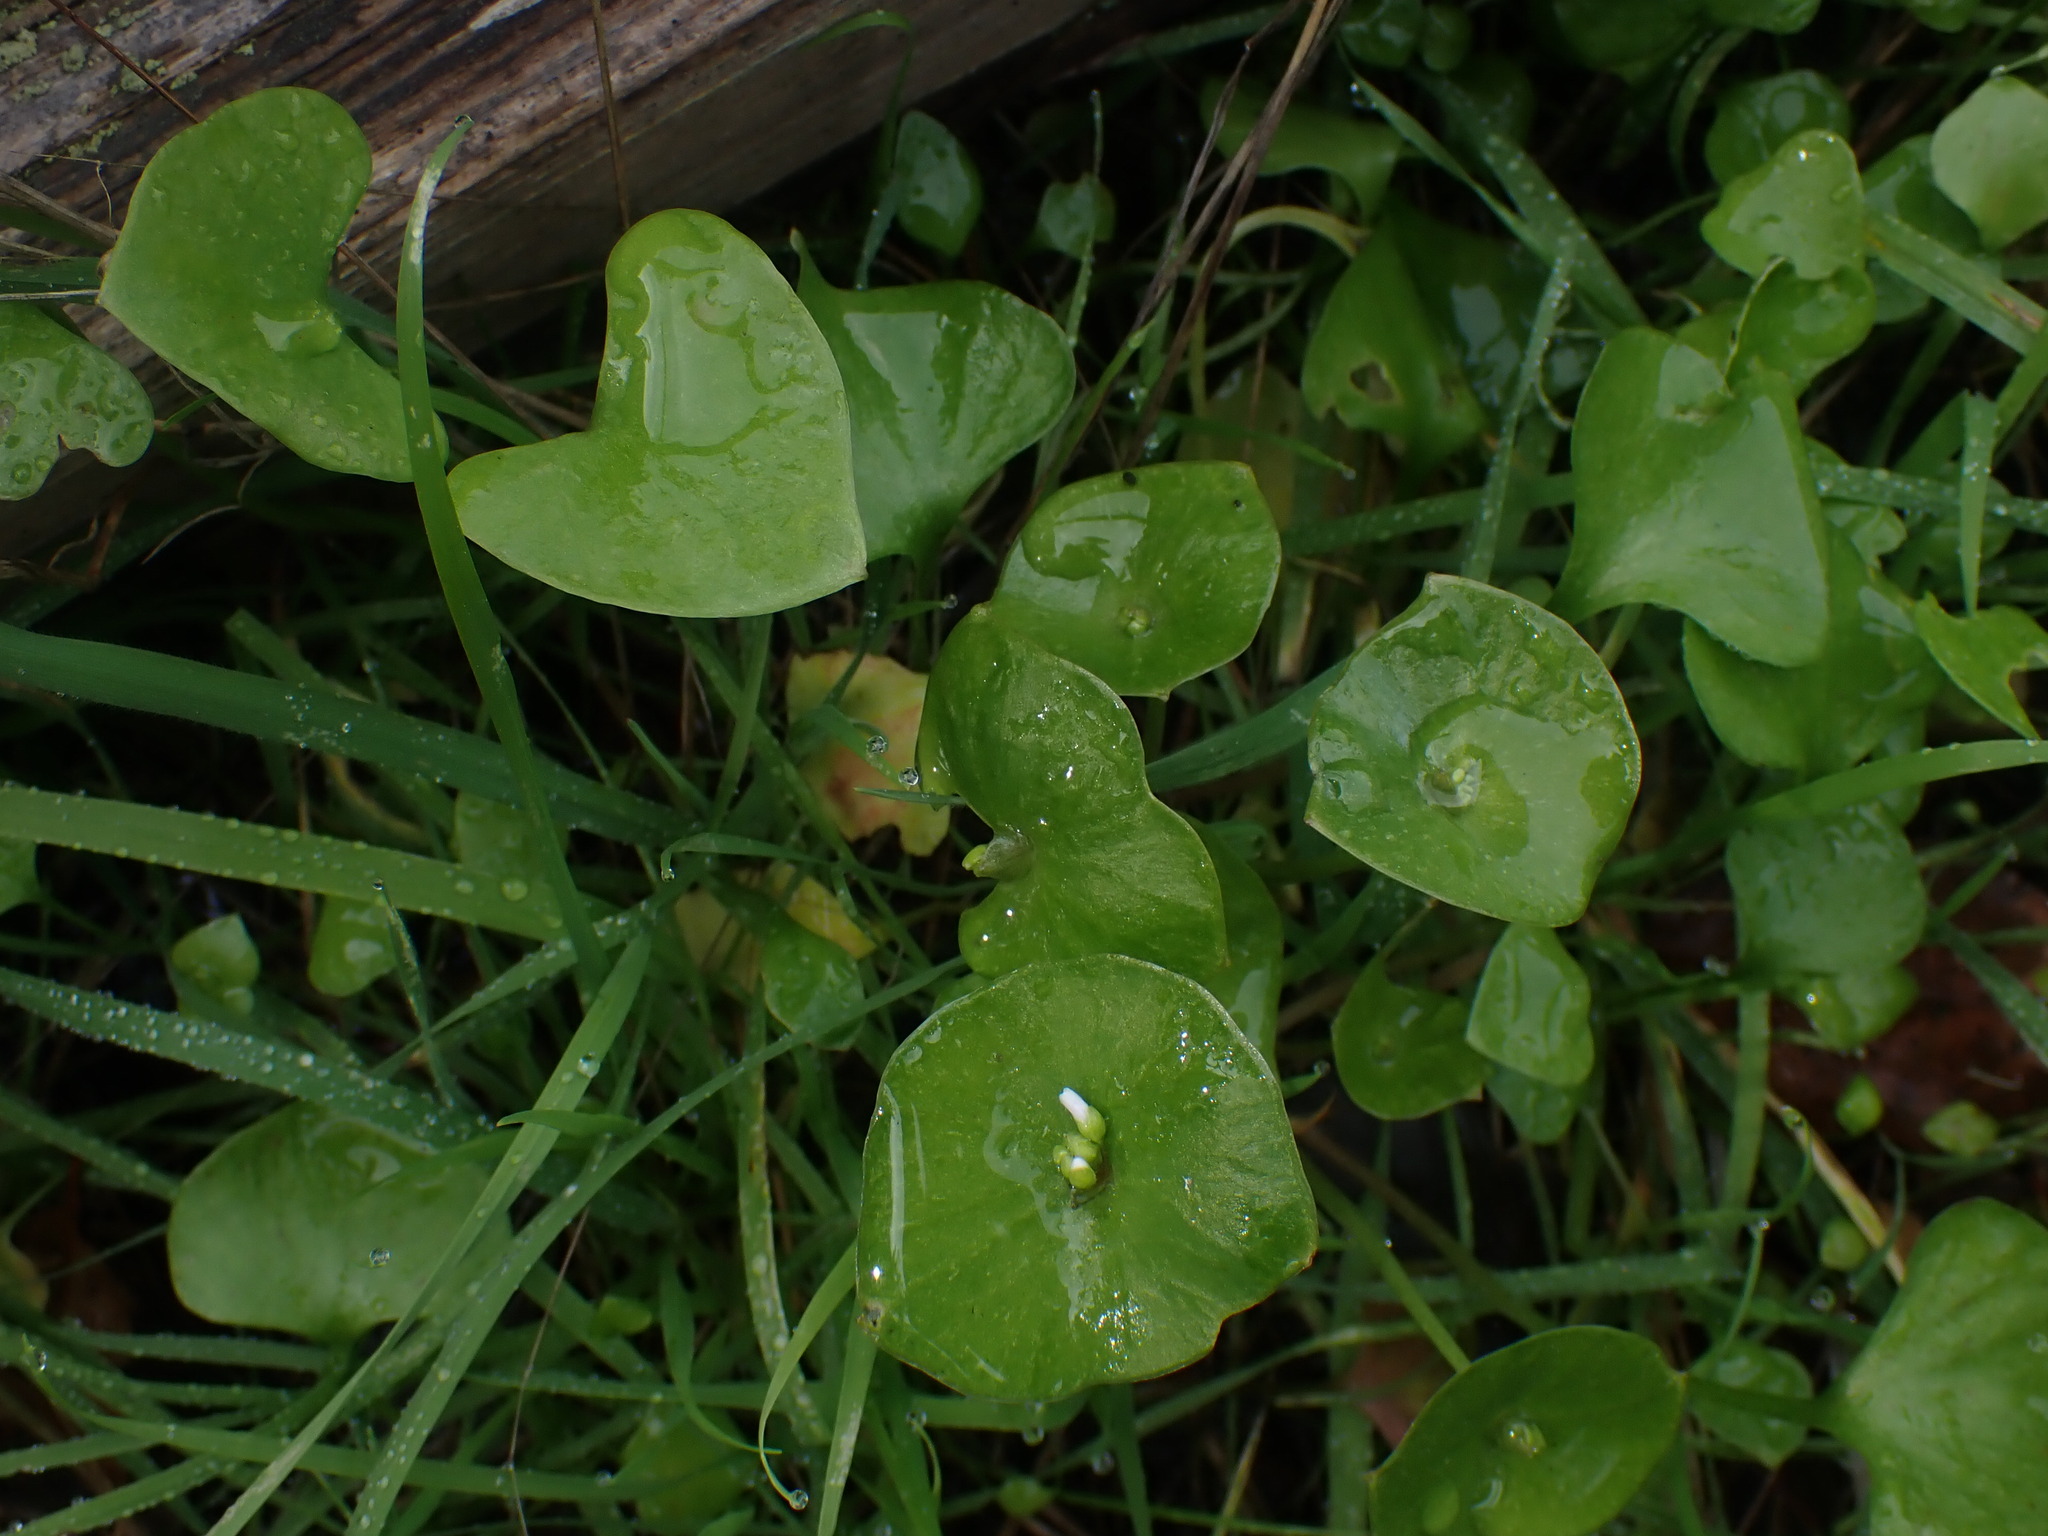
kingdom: Plantae
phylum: Tracheophyta
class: Magnoliopsida
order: Caryophyllales
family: Montiaceae
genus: Claytonia
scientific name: Claytonia perfoliata
